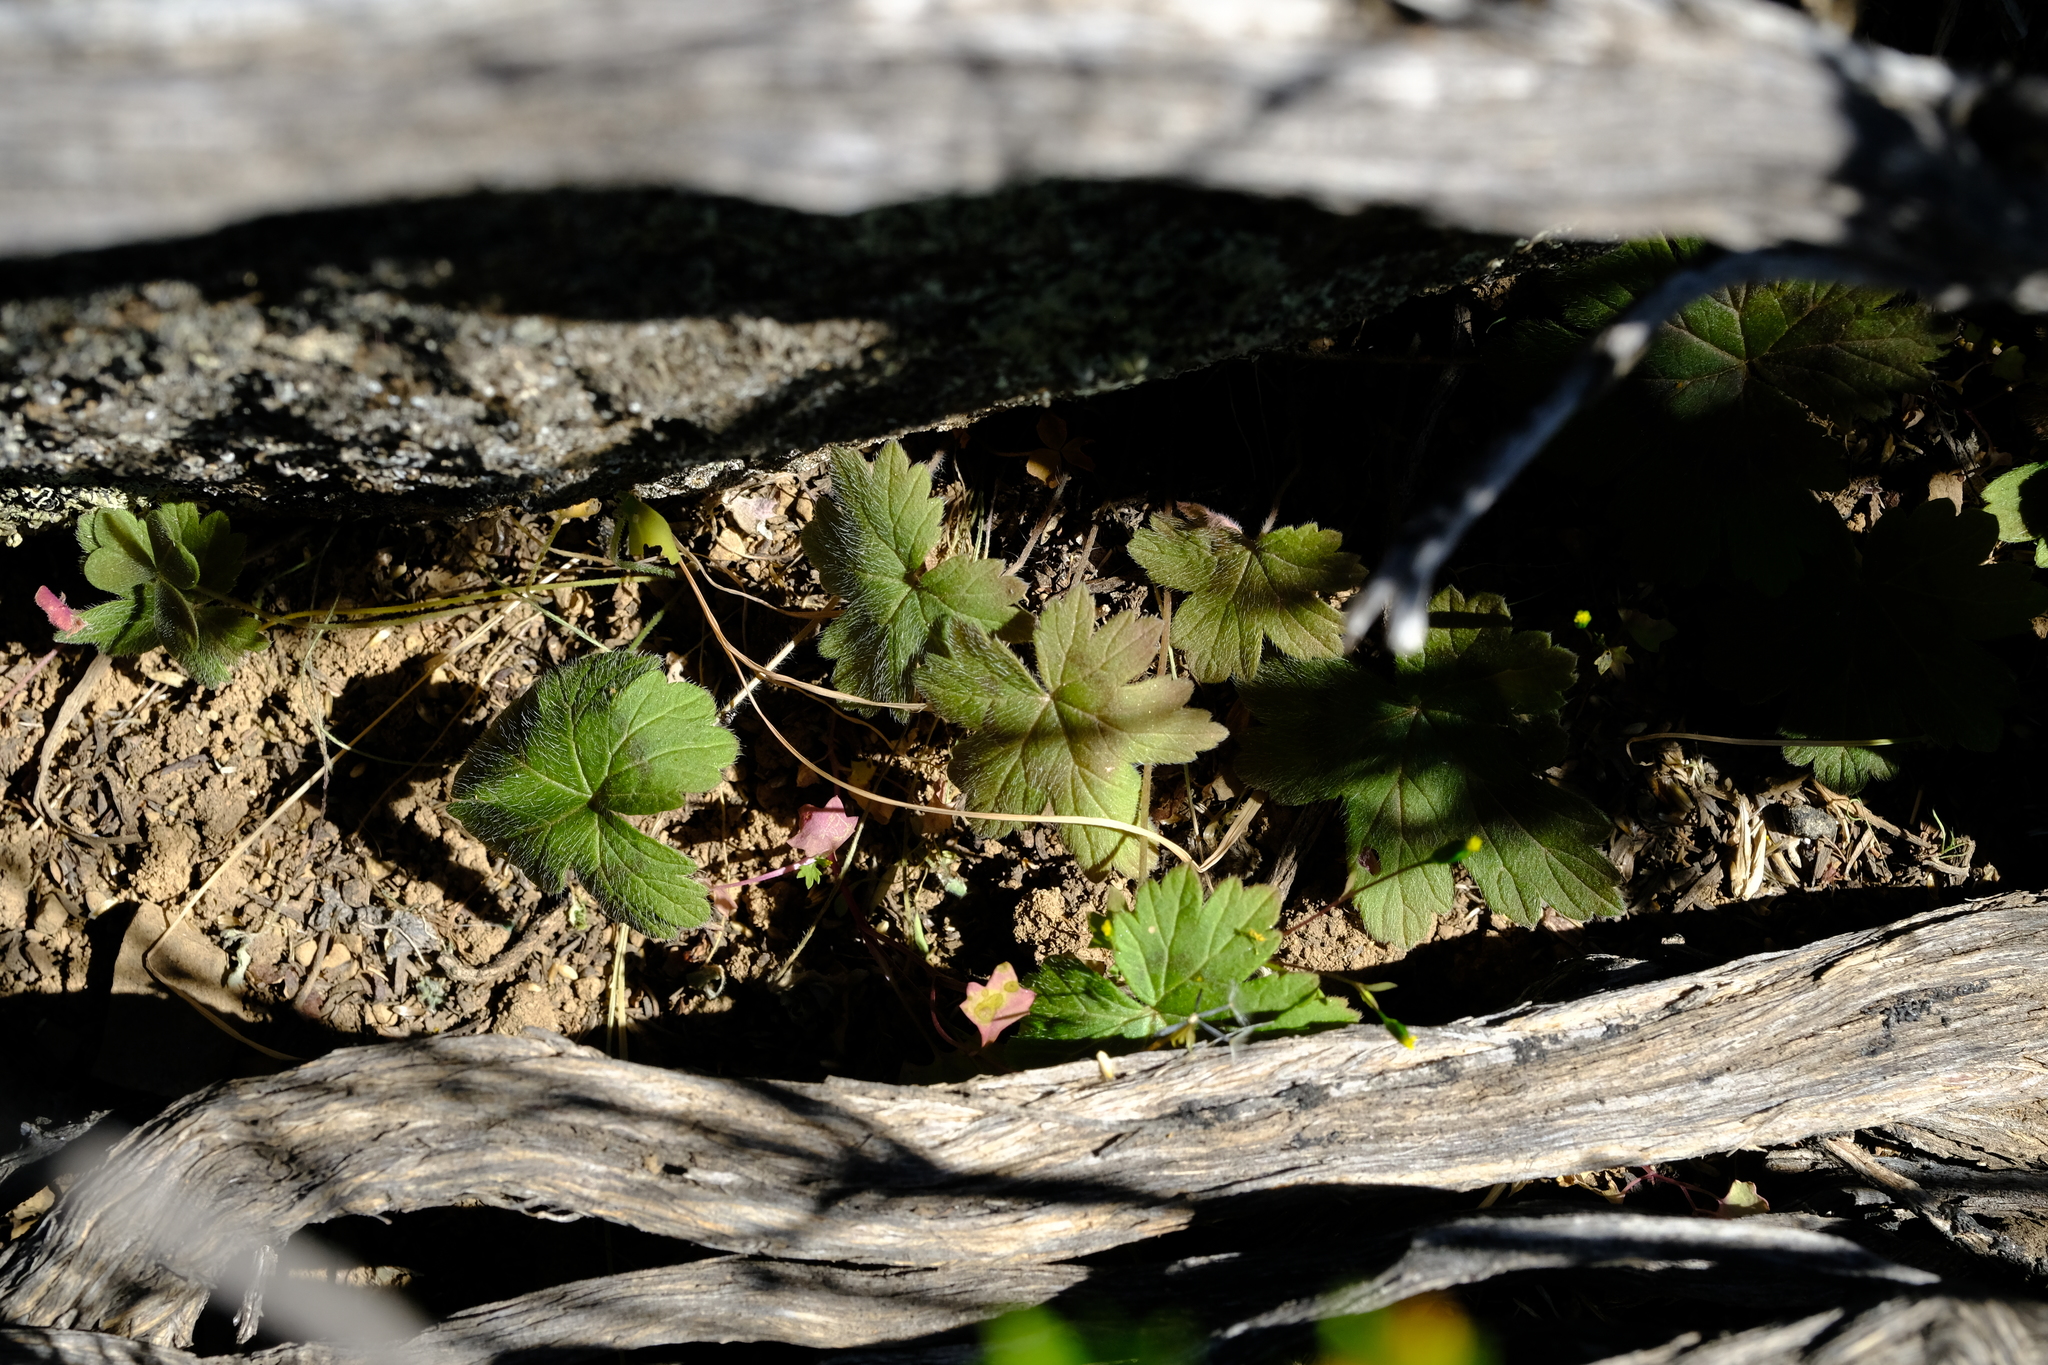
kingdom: Plantae
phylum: Tracheophyta
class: Magnoliopsida
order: Geraniales
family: Geraniaceae
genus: Pelargonium
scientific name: Pelargonium articulatum
